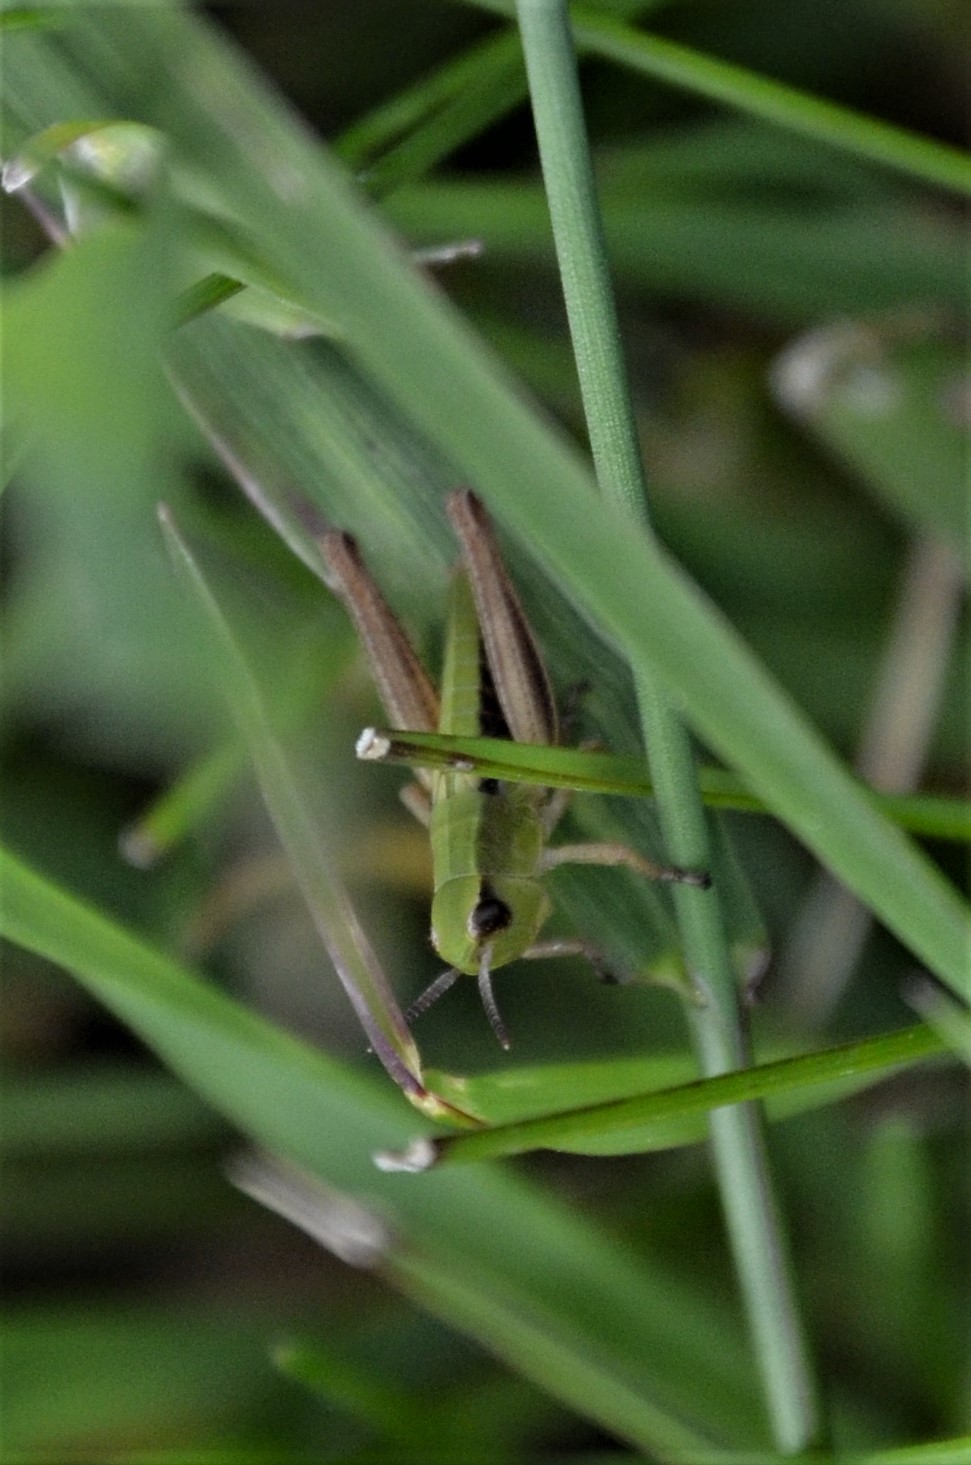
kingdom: Animalia
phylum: Arthropoda
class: Insecta
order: Orthoptera
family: Acrididae
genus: Pseudochorthippus
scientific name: Pseudochorthippus parallelus
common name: Meadow grasshopper
